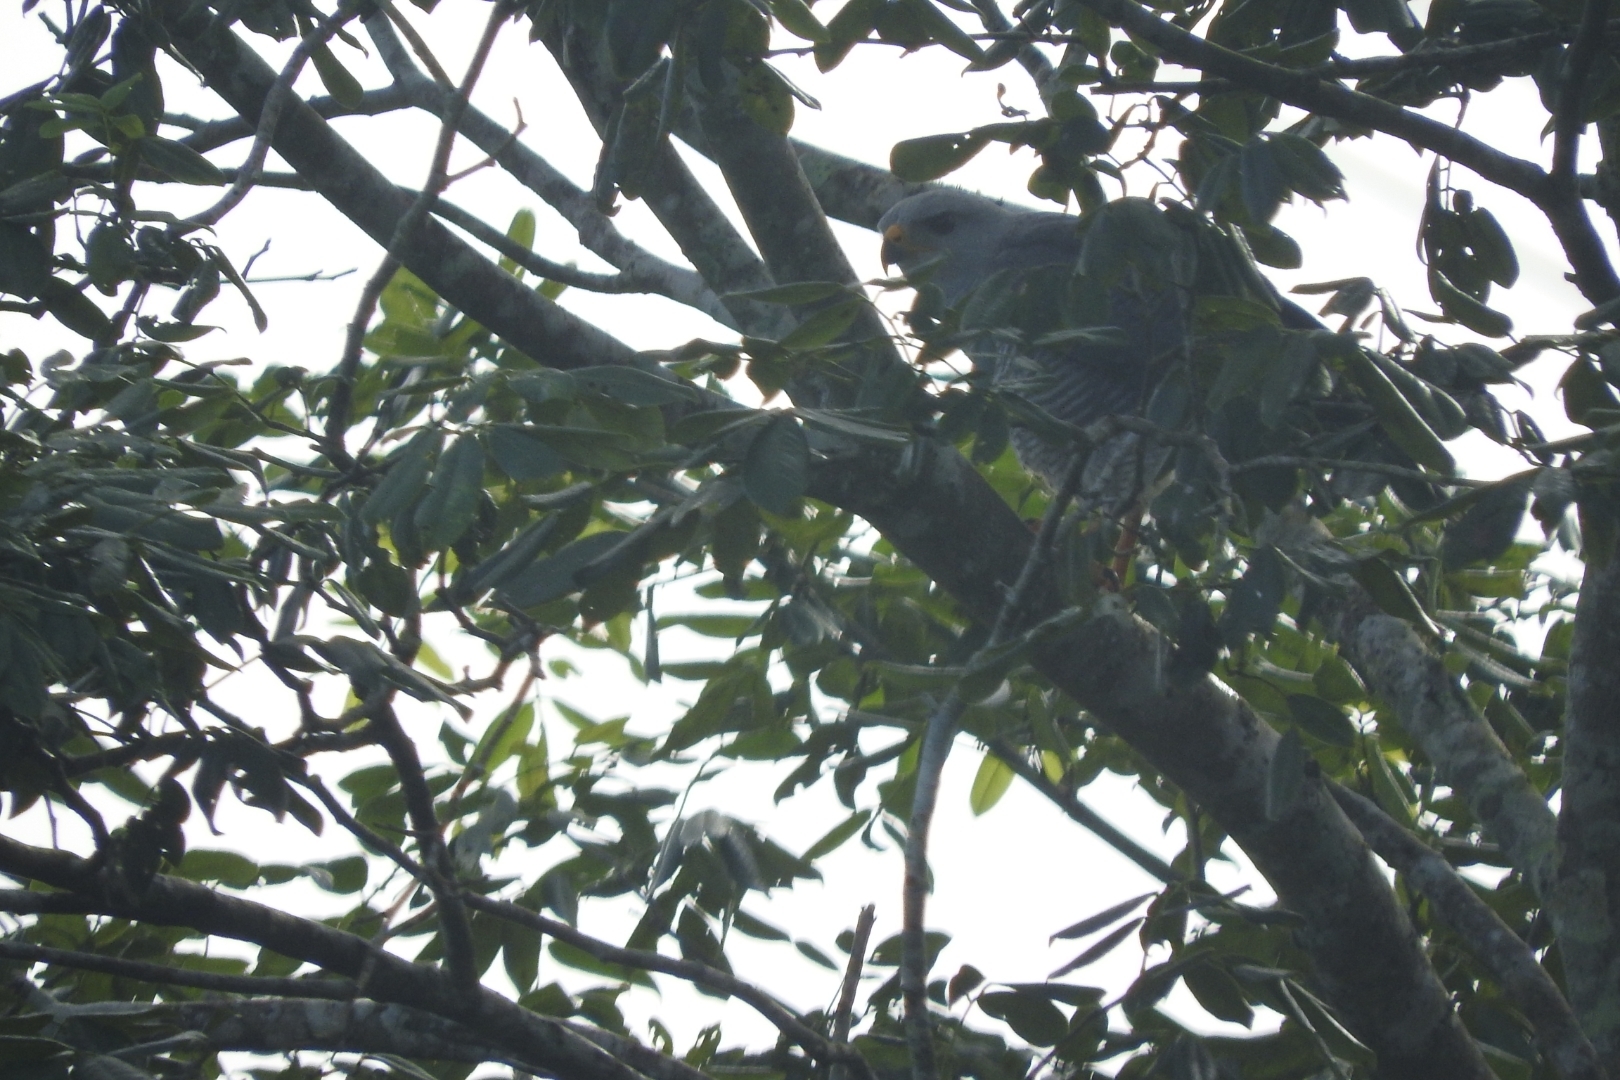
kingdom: Animalia
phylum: Chordata
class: Aves
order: Accipitriformes
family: Accipitridae
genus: Buteo
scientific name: Buteo nitidus
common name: Grey-lined hawk
